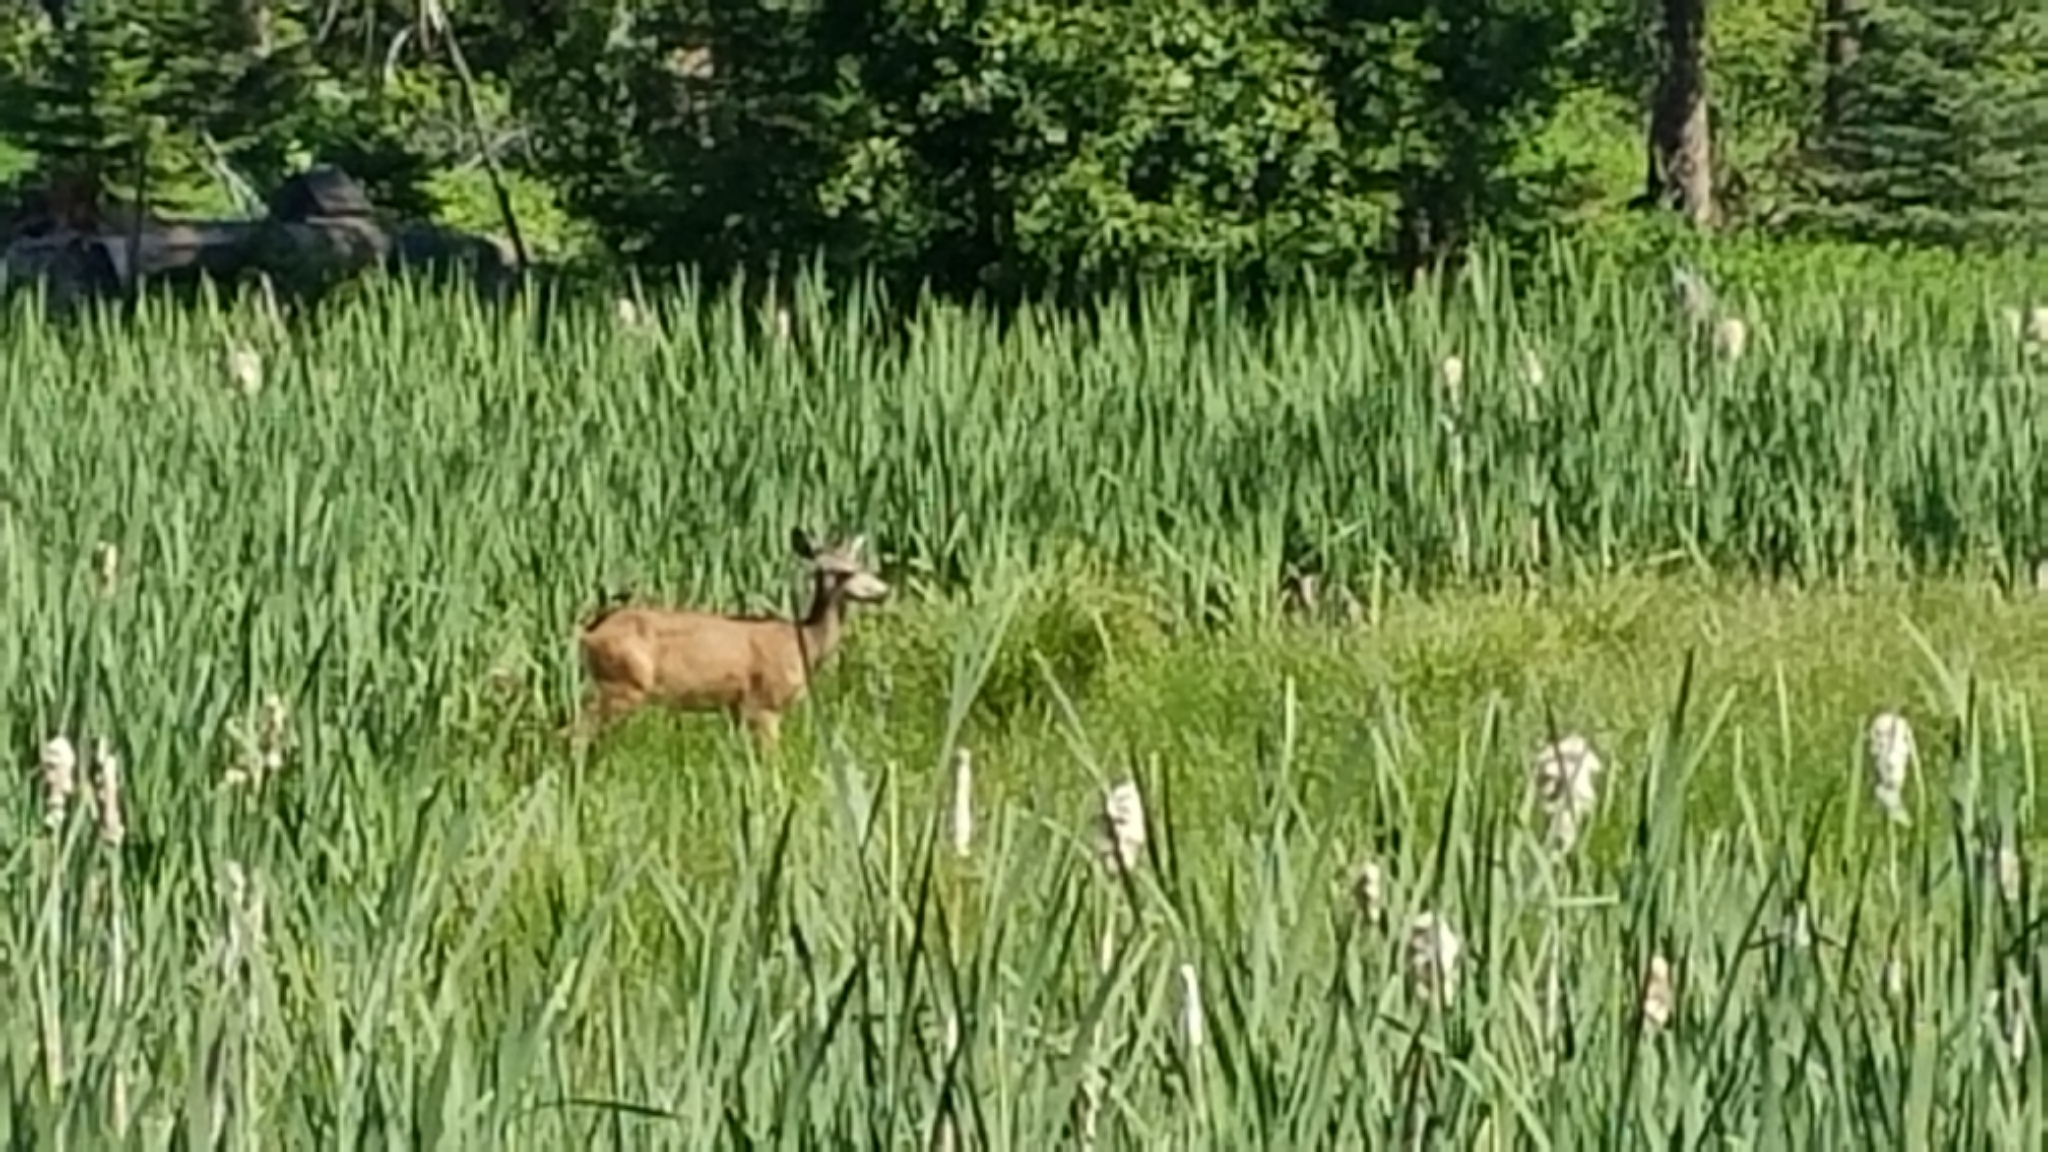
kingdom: Animalia
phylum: Chordata
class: Mammalia
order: Artiodactyla
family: Cervidae
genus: Odocoileus
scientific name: Odocoileus hemionus
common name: Mule deer
